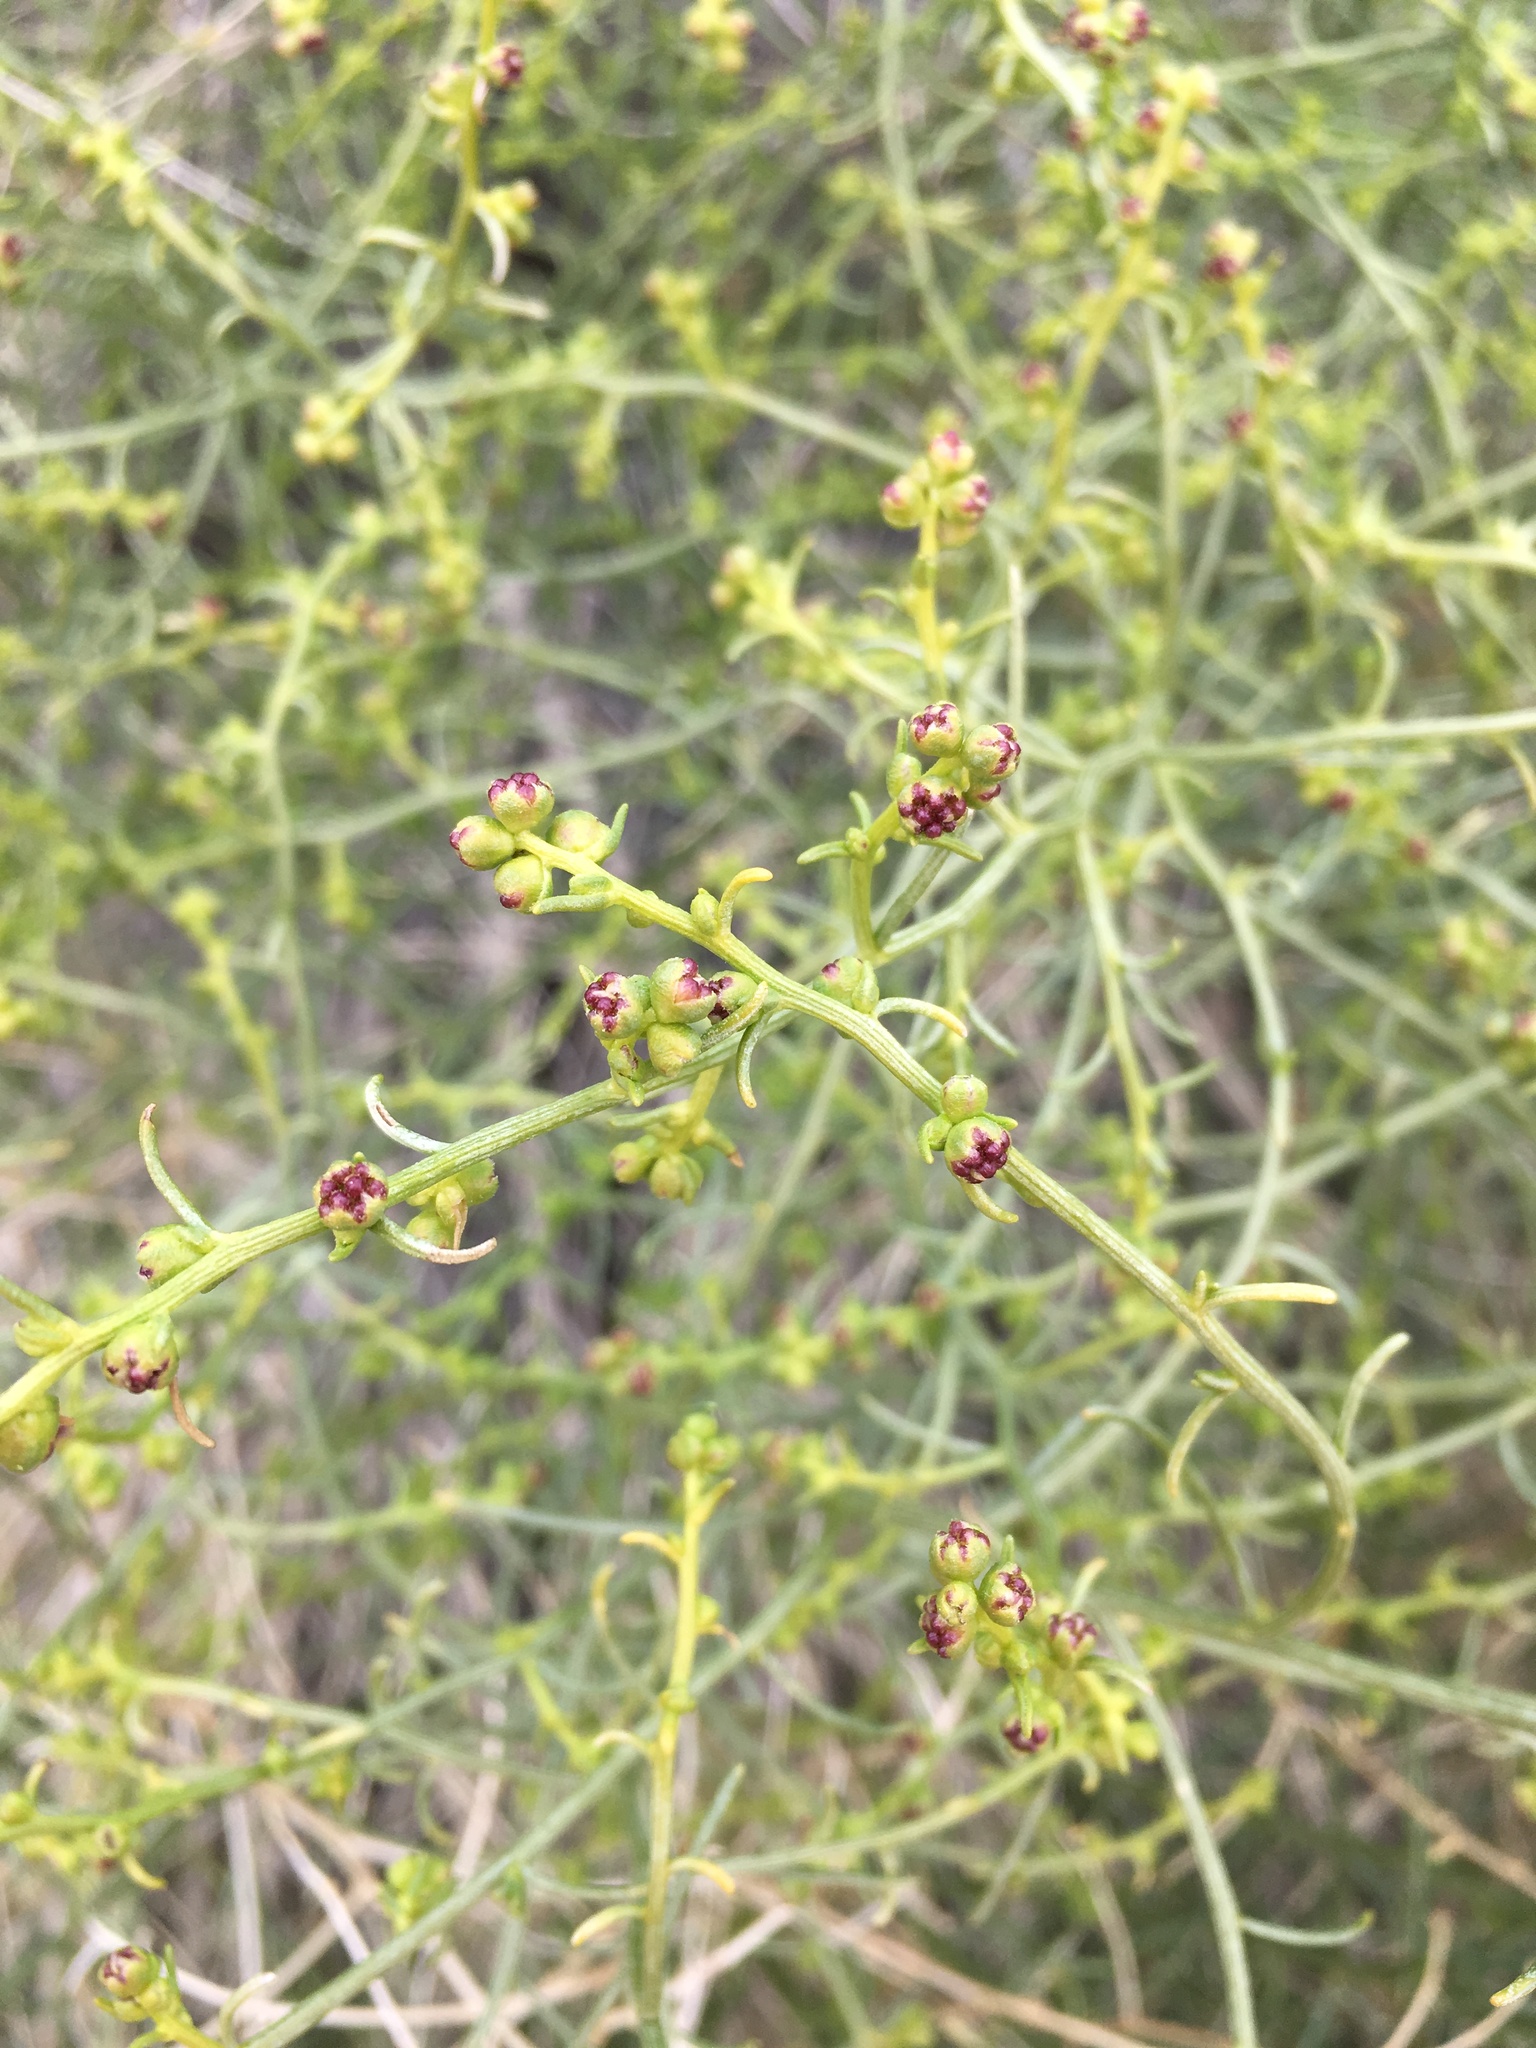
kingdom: Plantae
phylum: Tracheophyta
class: Magnoliopsida
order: Asterales
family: Asteraceae
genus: Ambrosia
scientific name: Ambrosia salsola
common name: Burrobrush
